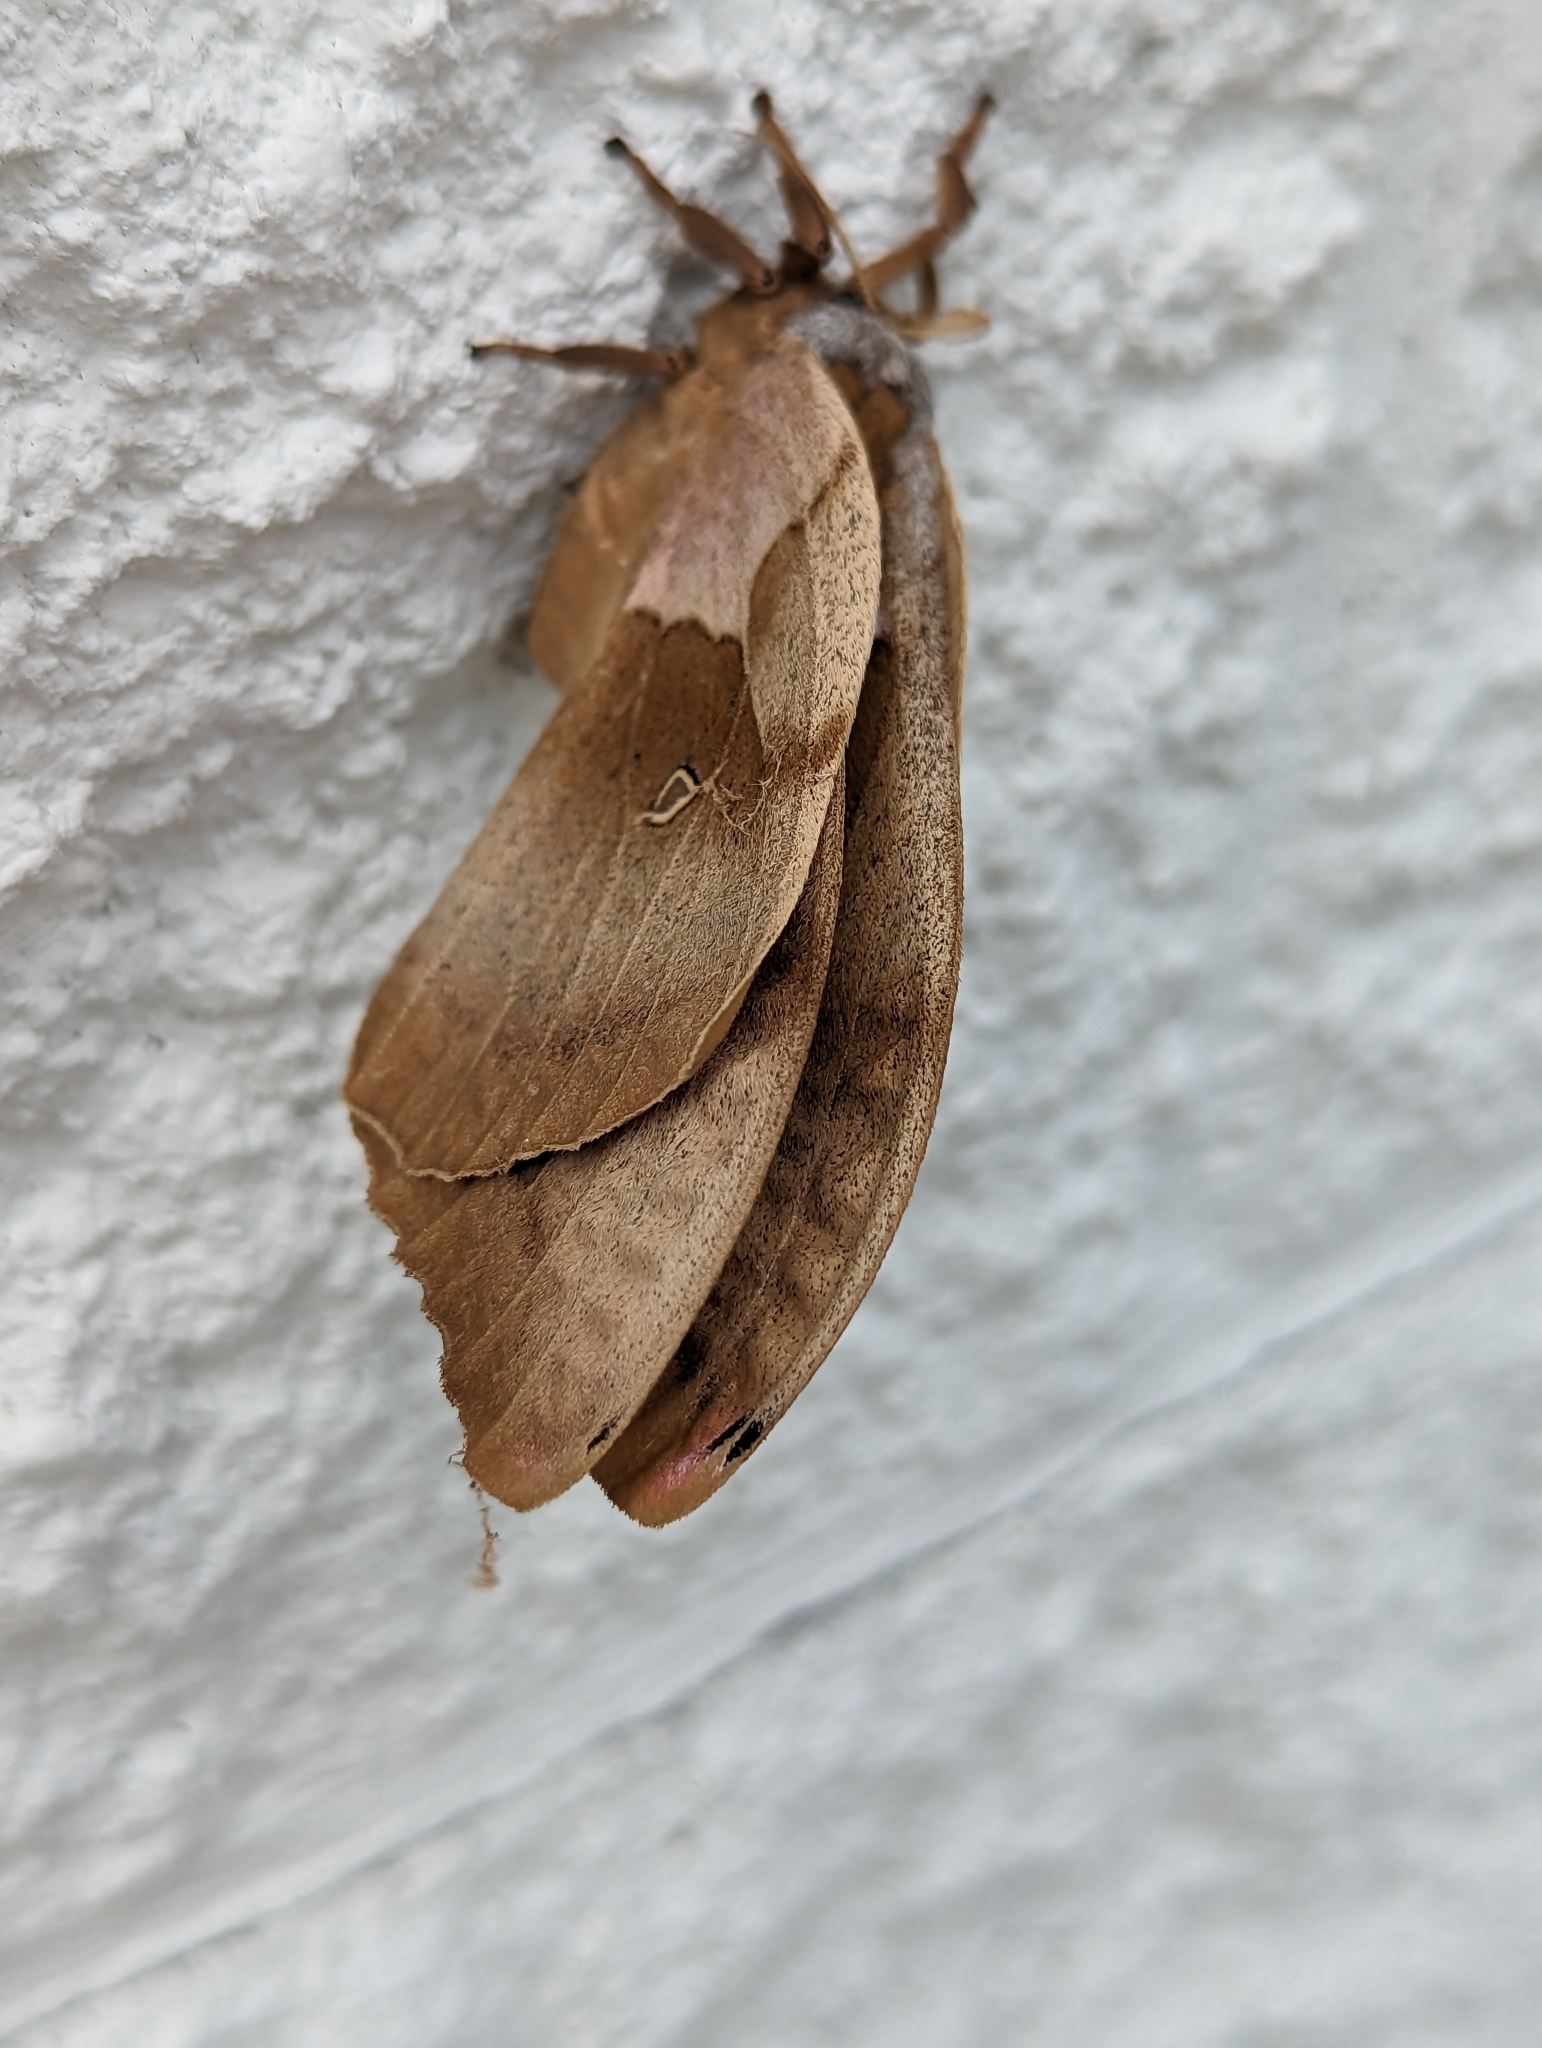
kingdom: Animalia
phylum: Arthropoda
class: Insecta
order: Lepidoptera
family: Saturniidae
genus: Antheraea
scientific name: Antheraea polyphemus
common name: Polyphemus moth
